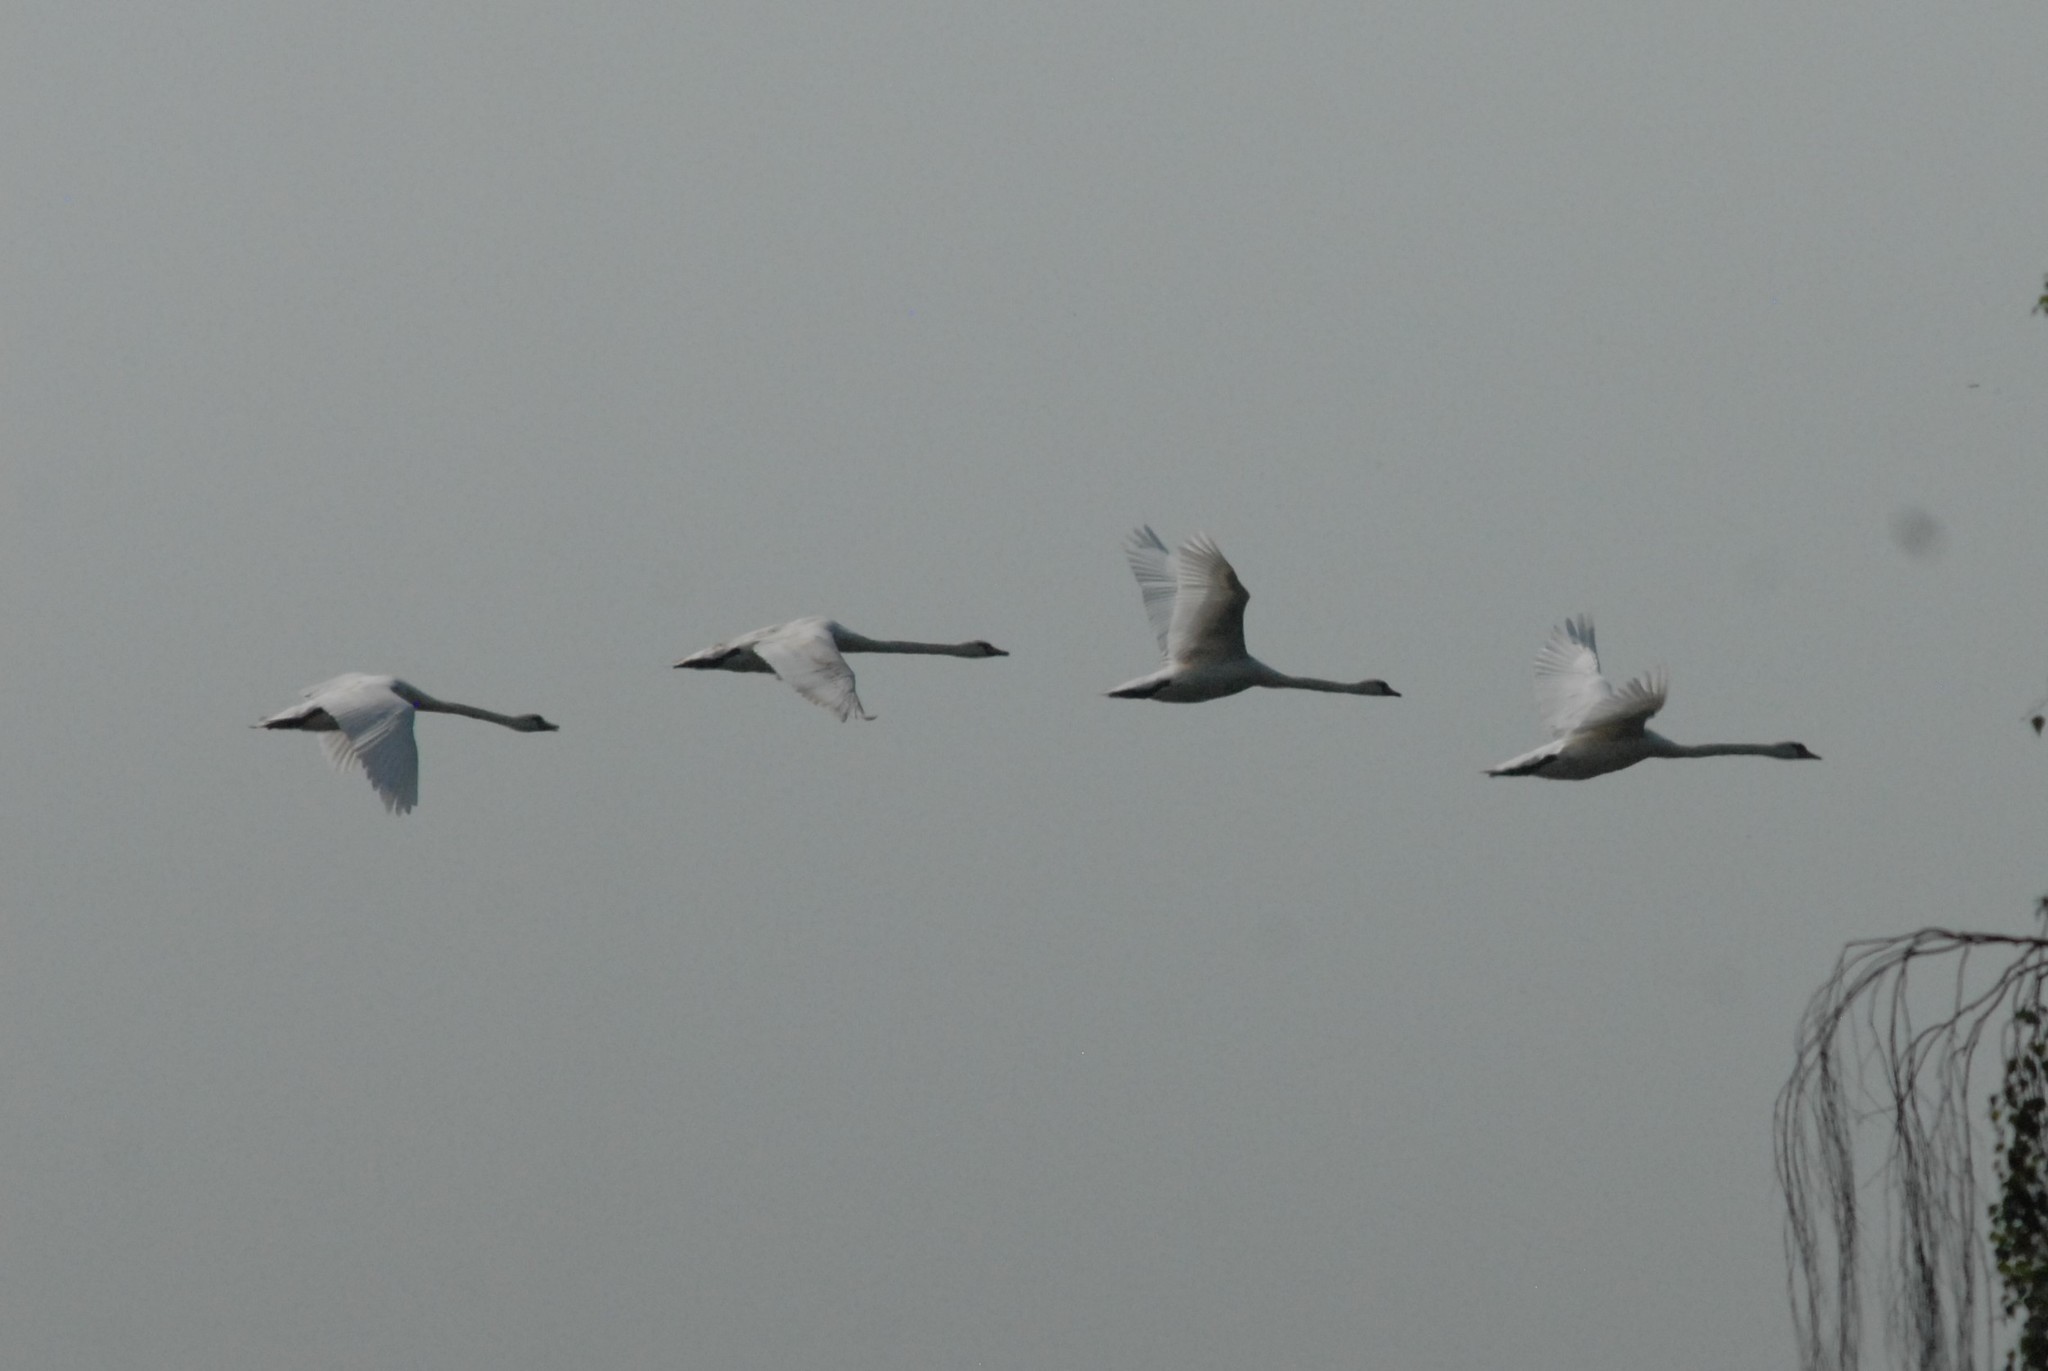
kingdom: Animalia
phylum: Chordata
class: Aves
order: Anseriformes
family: Anatidae
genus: Cygnus
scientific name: Cygnus olor
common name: Mute swan
